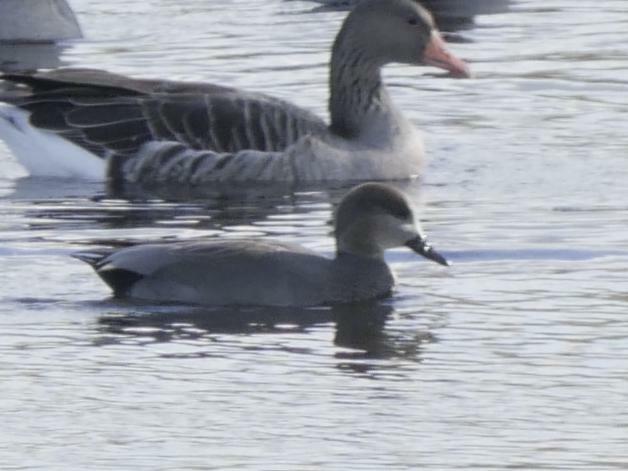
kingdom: Animalia
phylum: Chordata
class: Aves
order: Anseriformes
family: Anatidae
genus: Mareca
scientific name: Mareca strepera
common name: Gadwall
